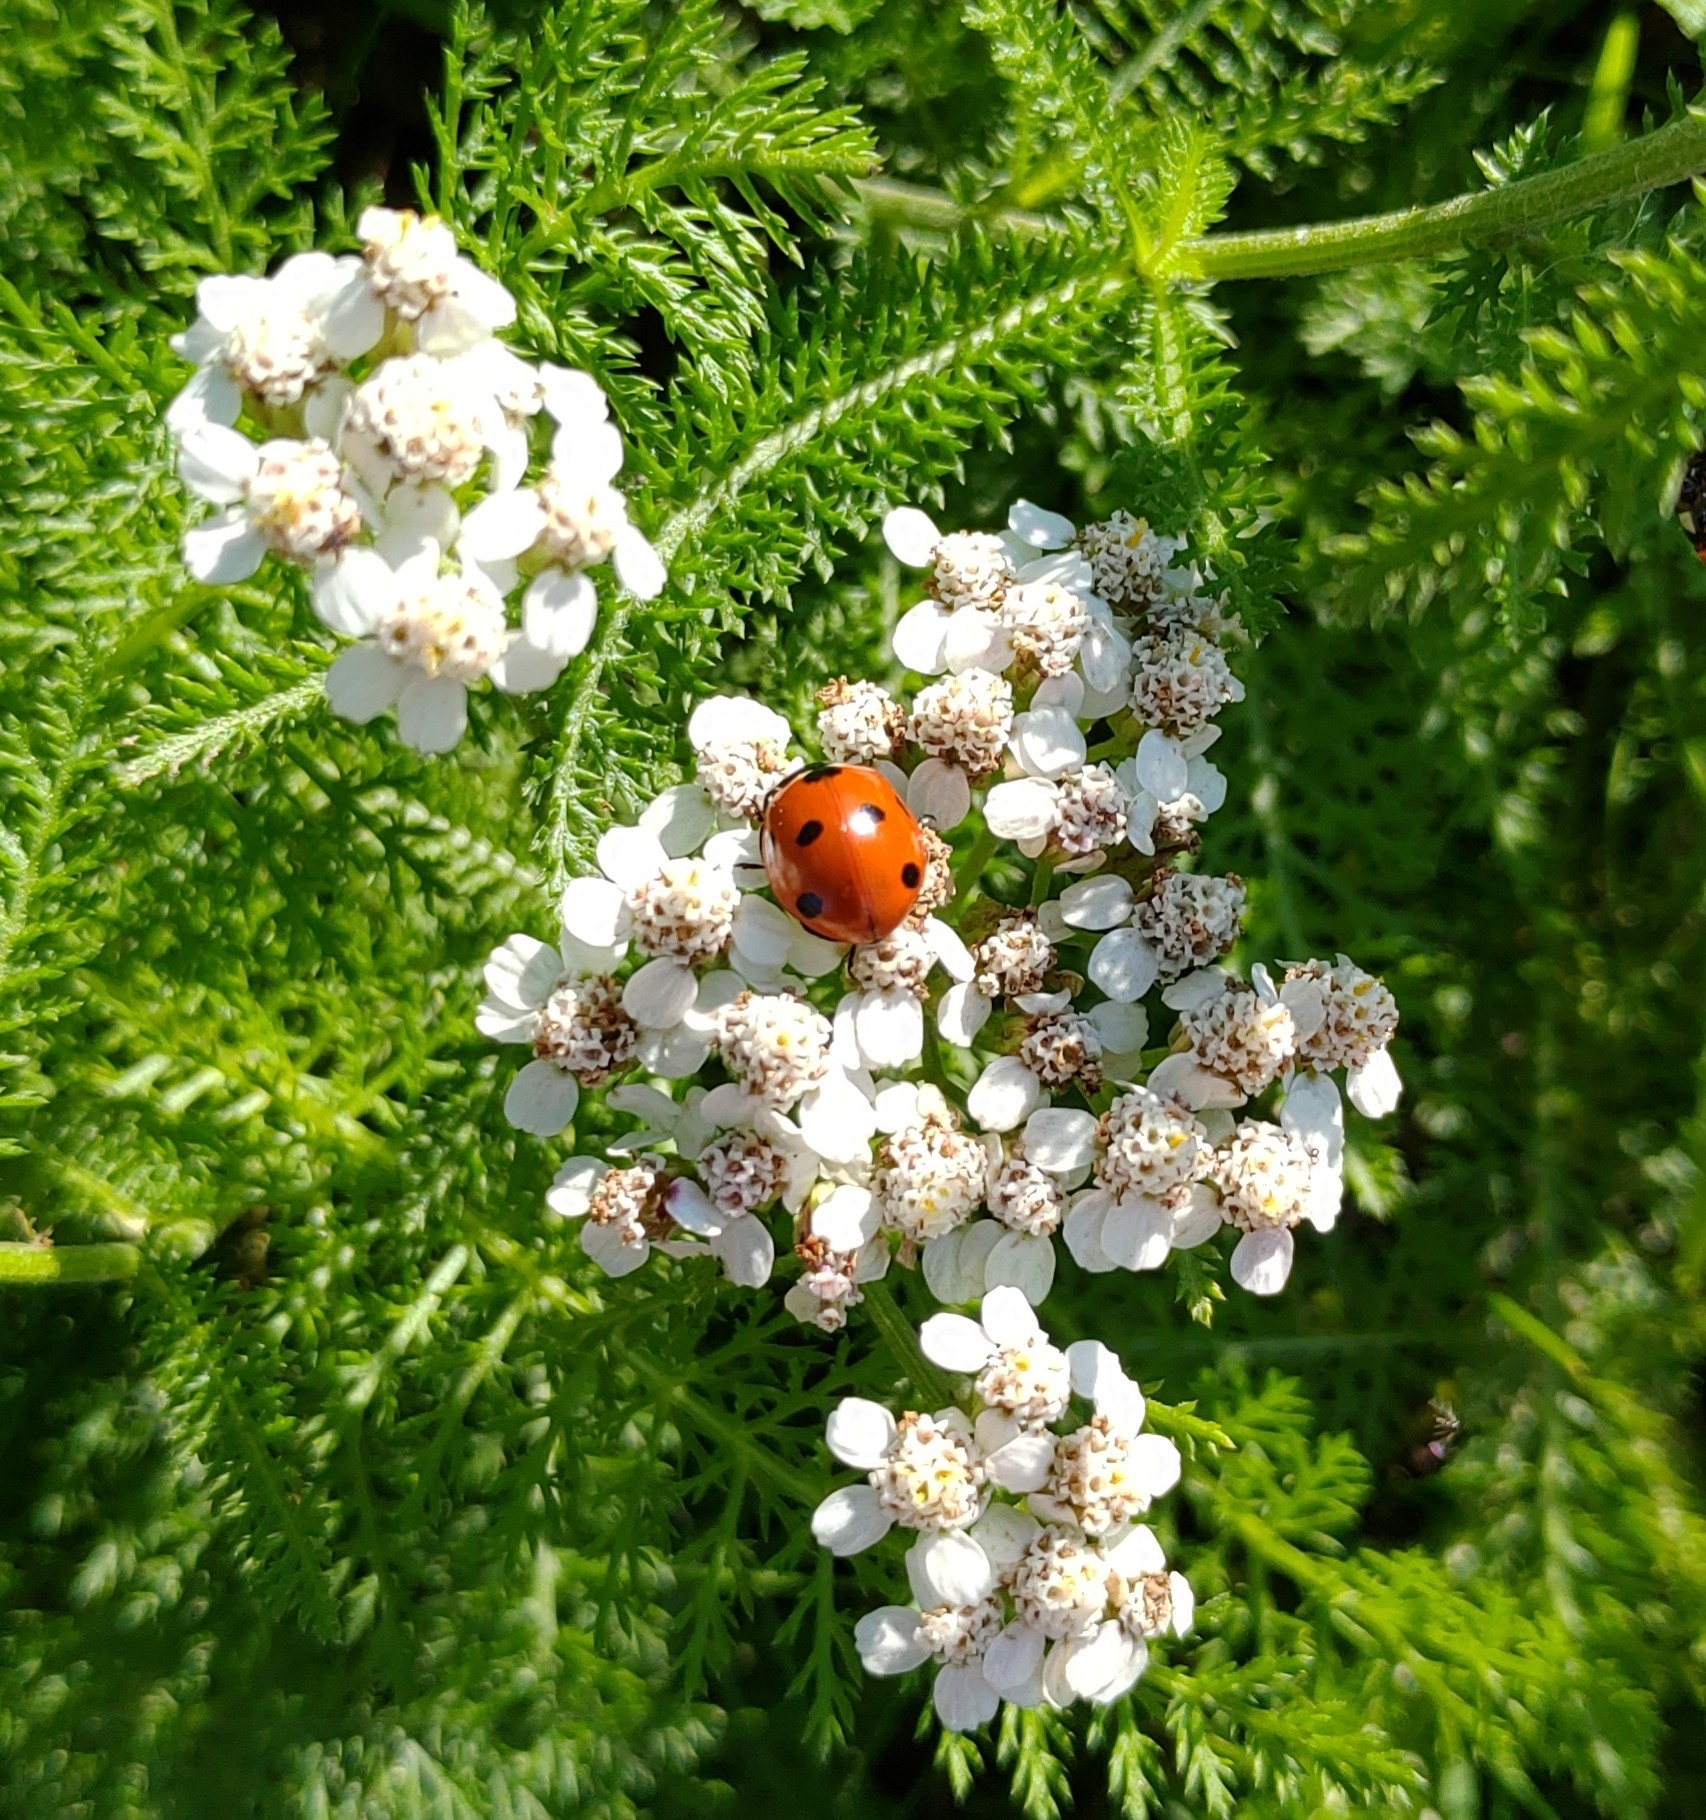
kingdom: Animalia
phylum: Arthropoda
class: Insecta
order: Coleoptera
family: Coccinellidae
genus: Coccinella
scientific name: Coccinella septempunctata
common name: Sevenspotted lady beetle
